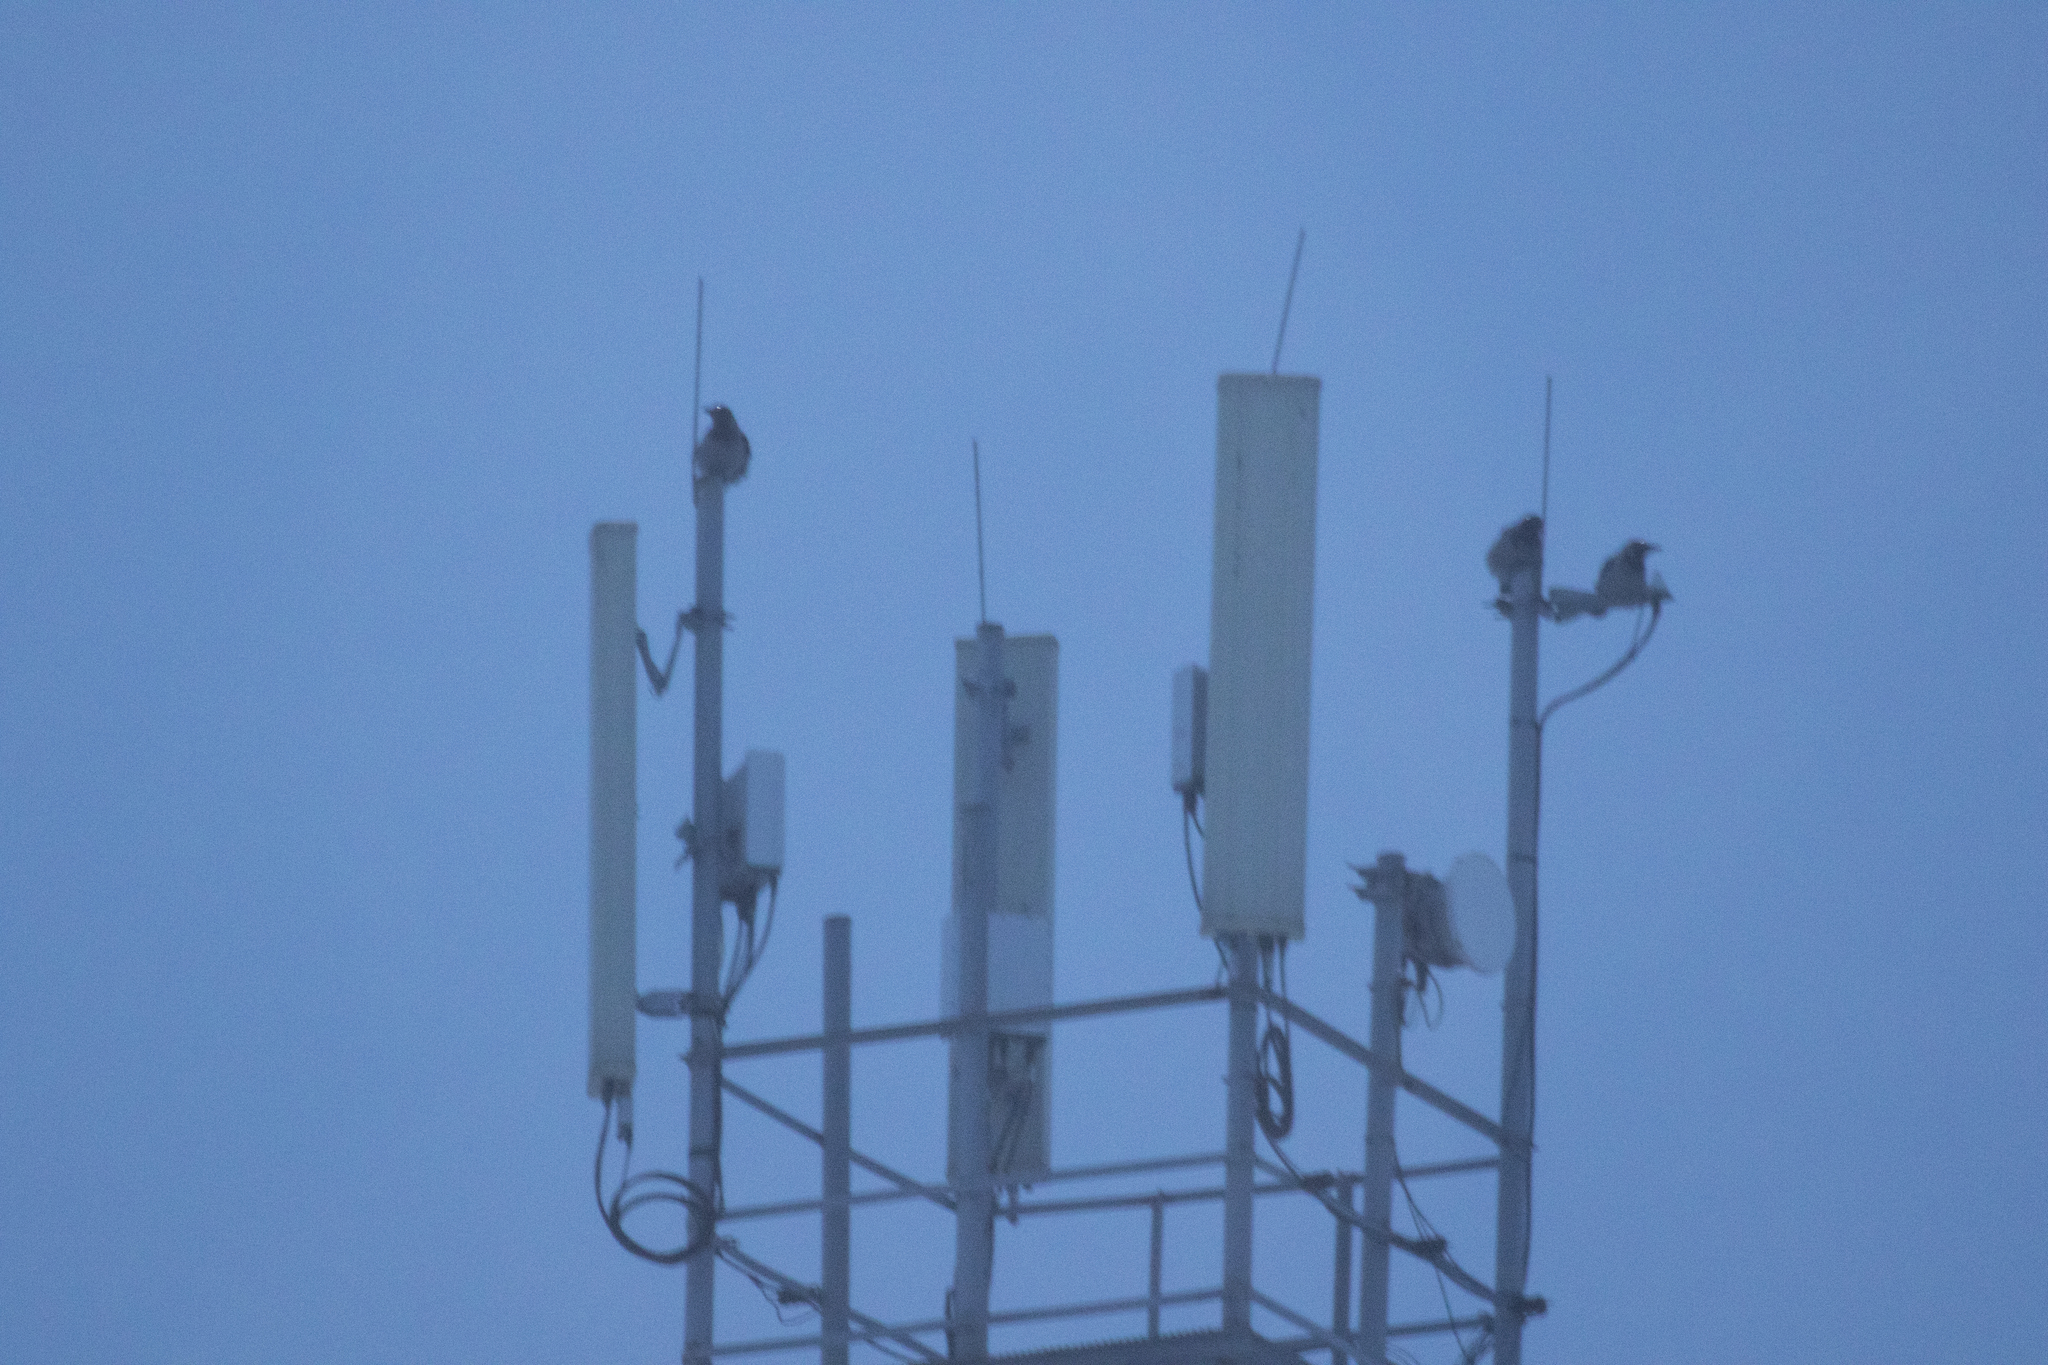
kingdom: Animalia
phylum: Chordata
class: Aves
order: Passeriformes
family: Corvidae
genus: Corvus
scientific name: Corvus cornix
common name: Hooded crow
